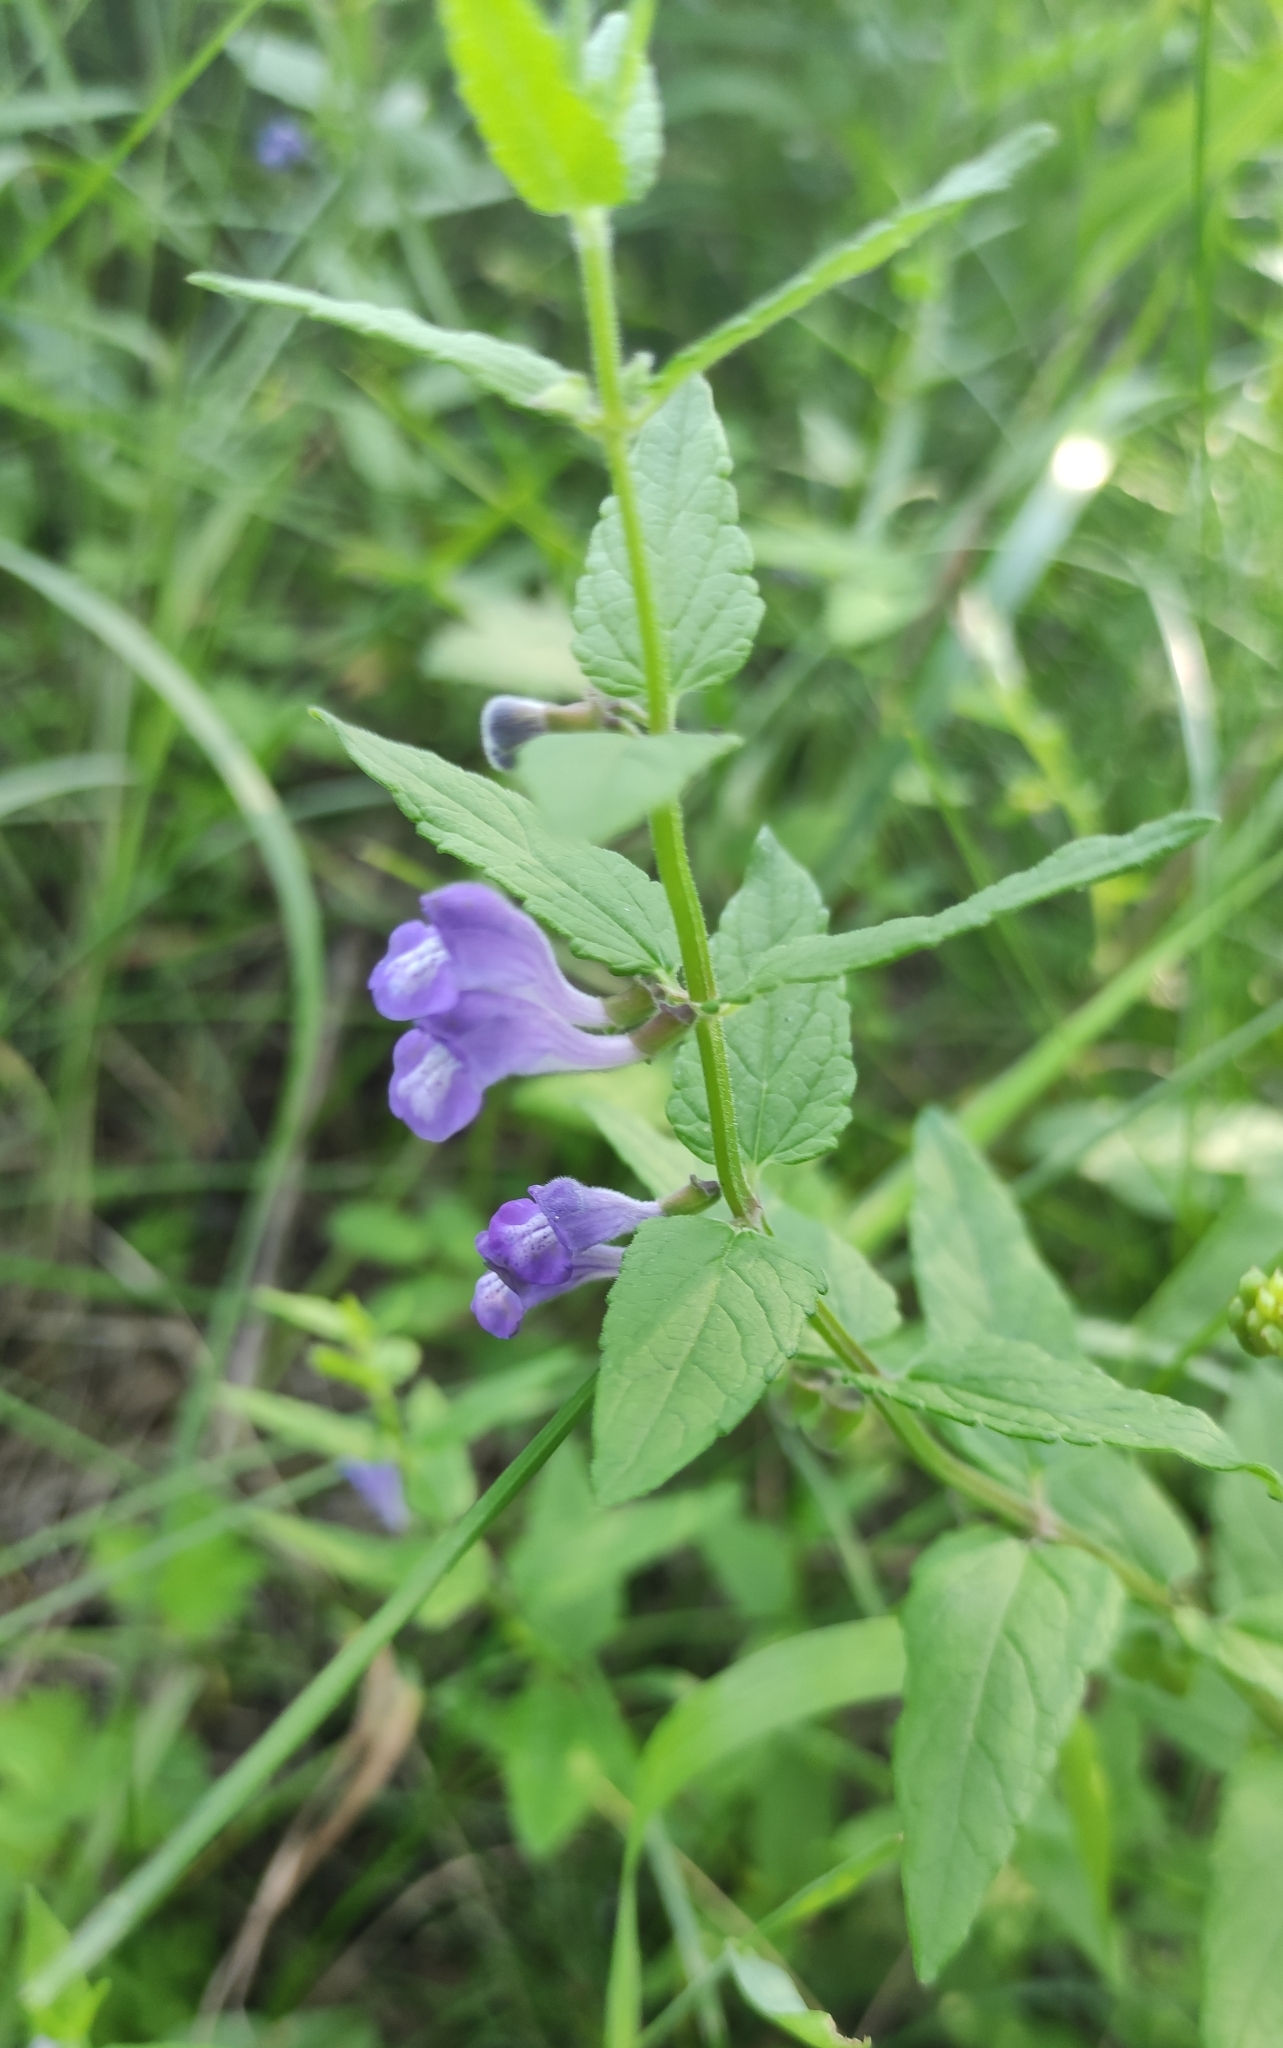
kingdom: Plantae
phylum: Tracheophyta
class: Magnoliopsida
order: Lamiales
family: Lamiaceae
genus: Scutellaria
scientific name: Scutellaria galericulata
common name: Skullcap
